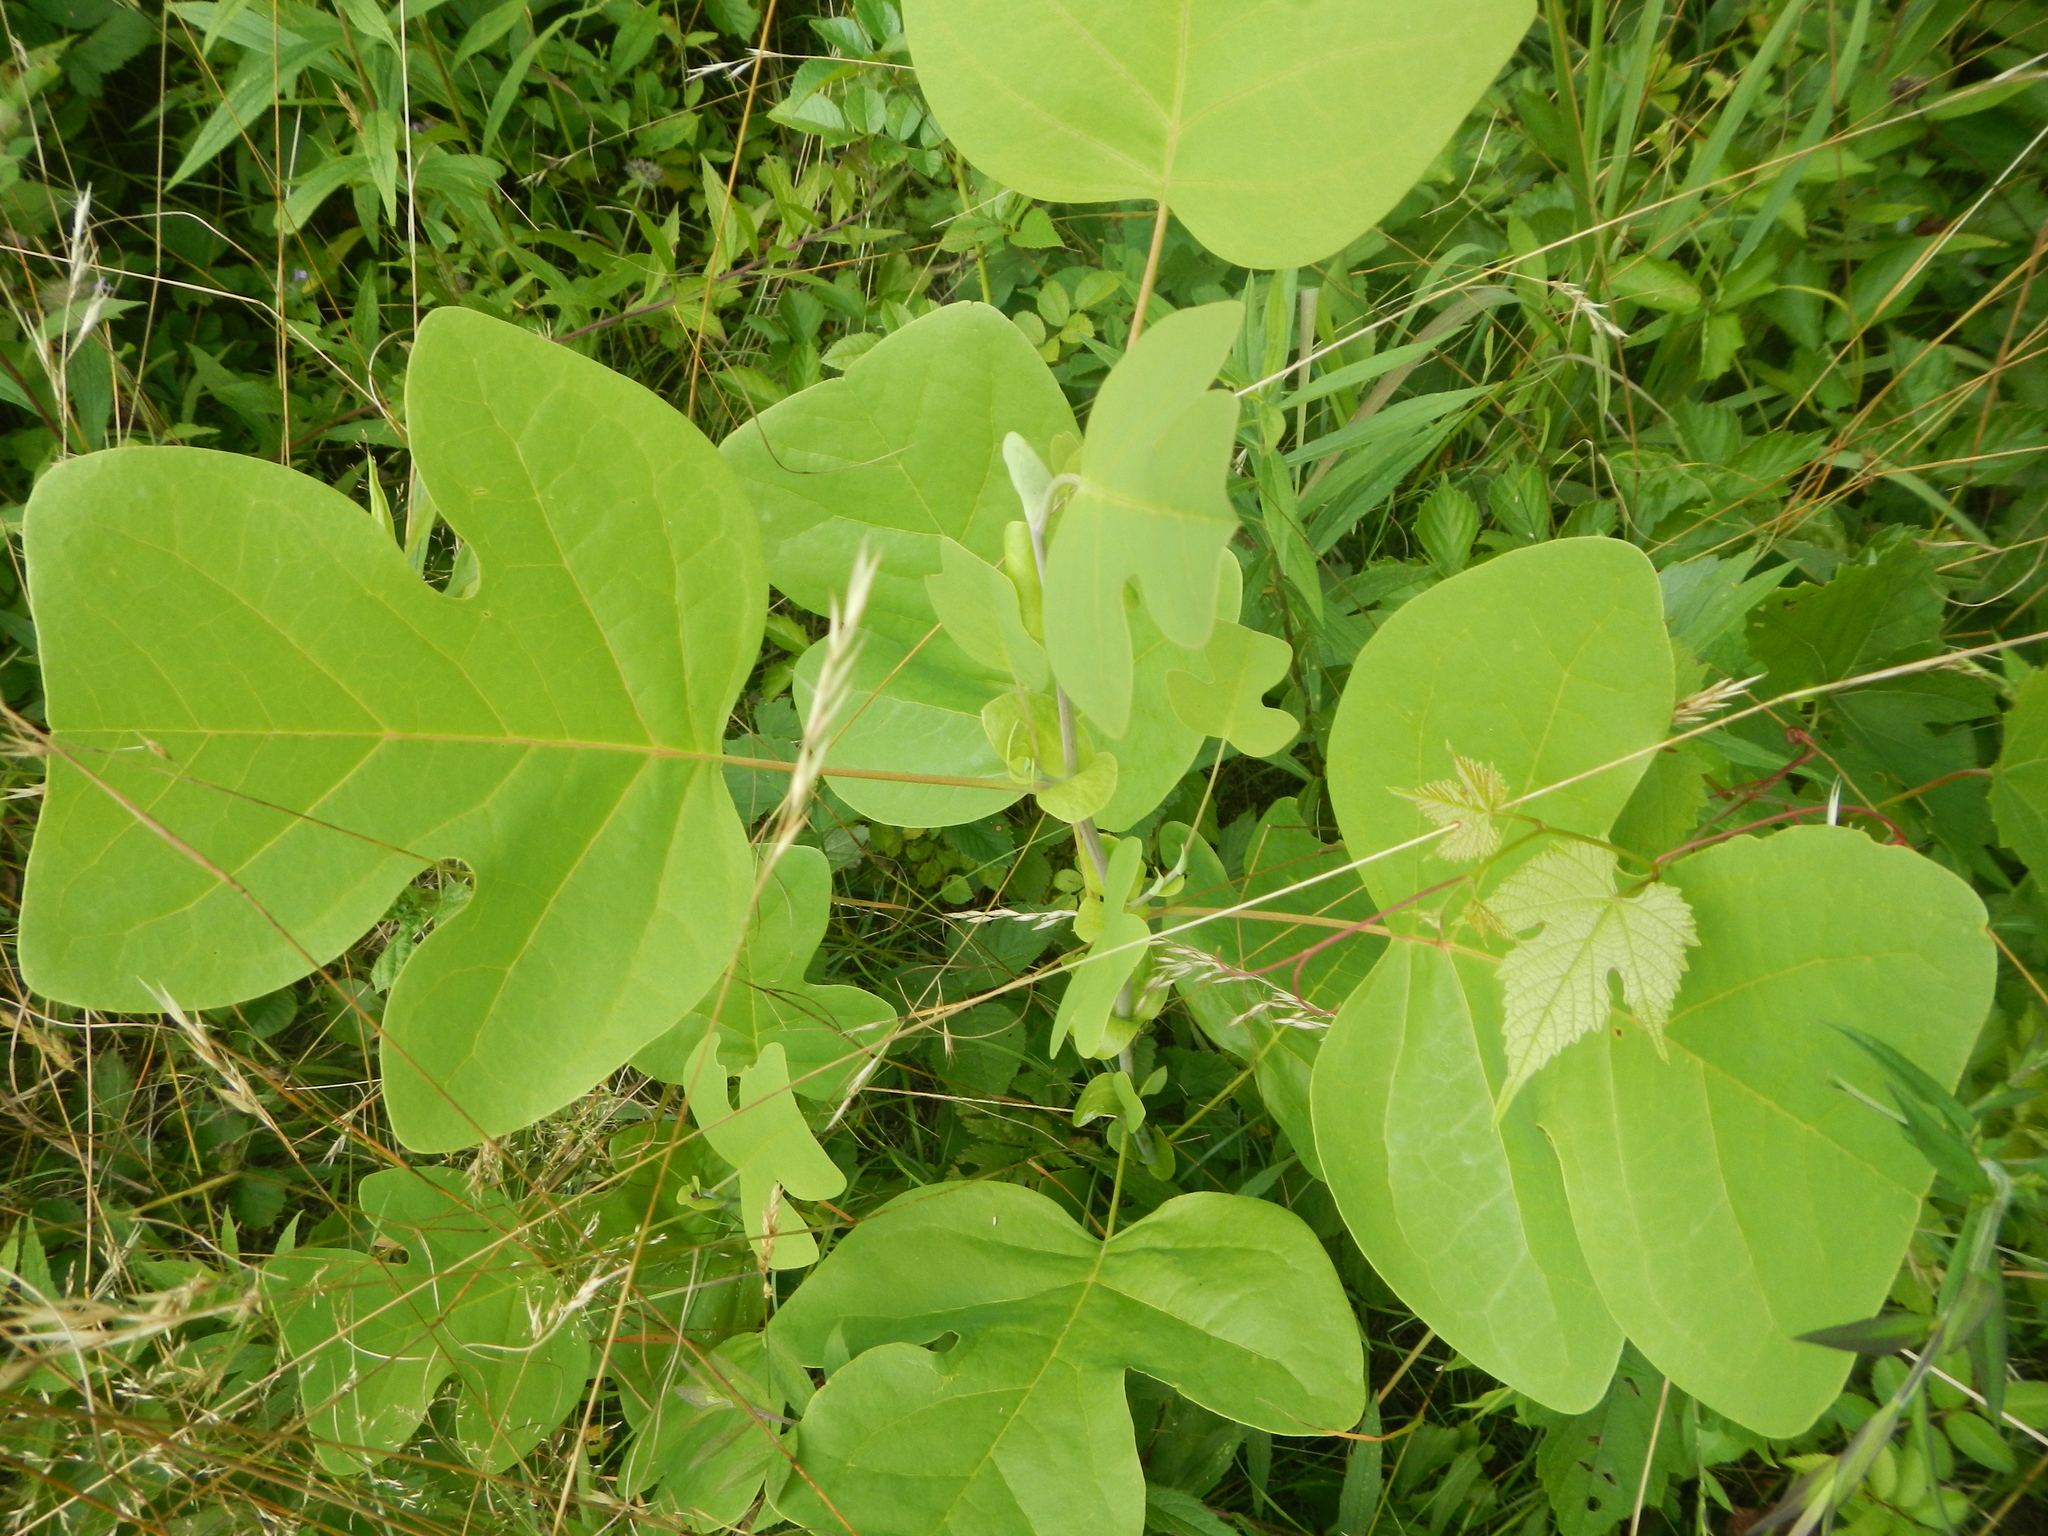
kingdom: Plantae
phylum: Tracheophyta
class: Magnoliopsida
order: Magnoliales
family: Magnoliaceae
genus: Liriodendron
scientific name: Liriodendron tulipifera
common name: Tulip tree
